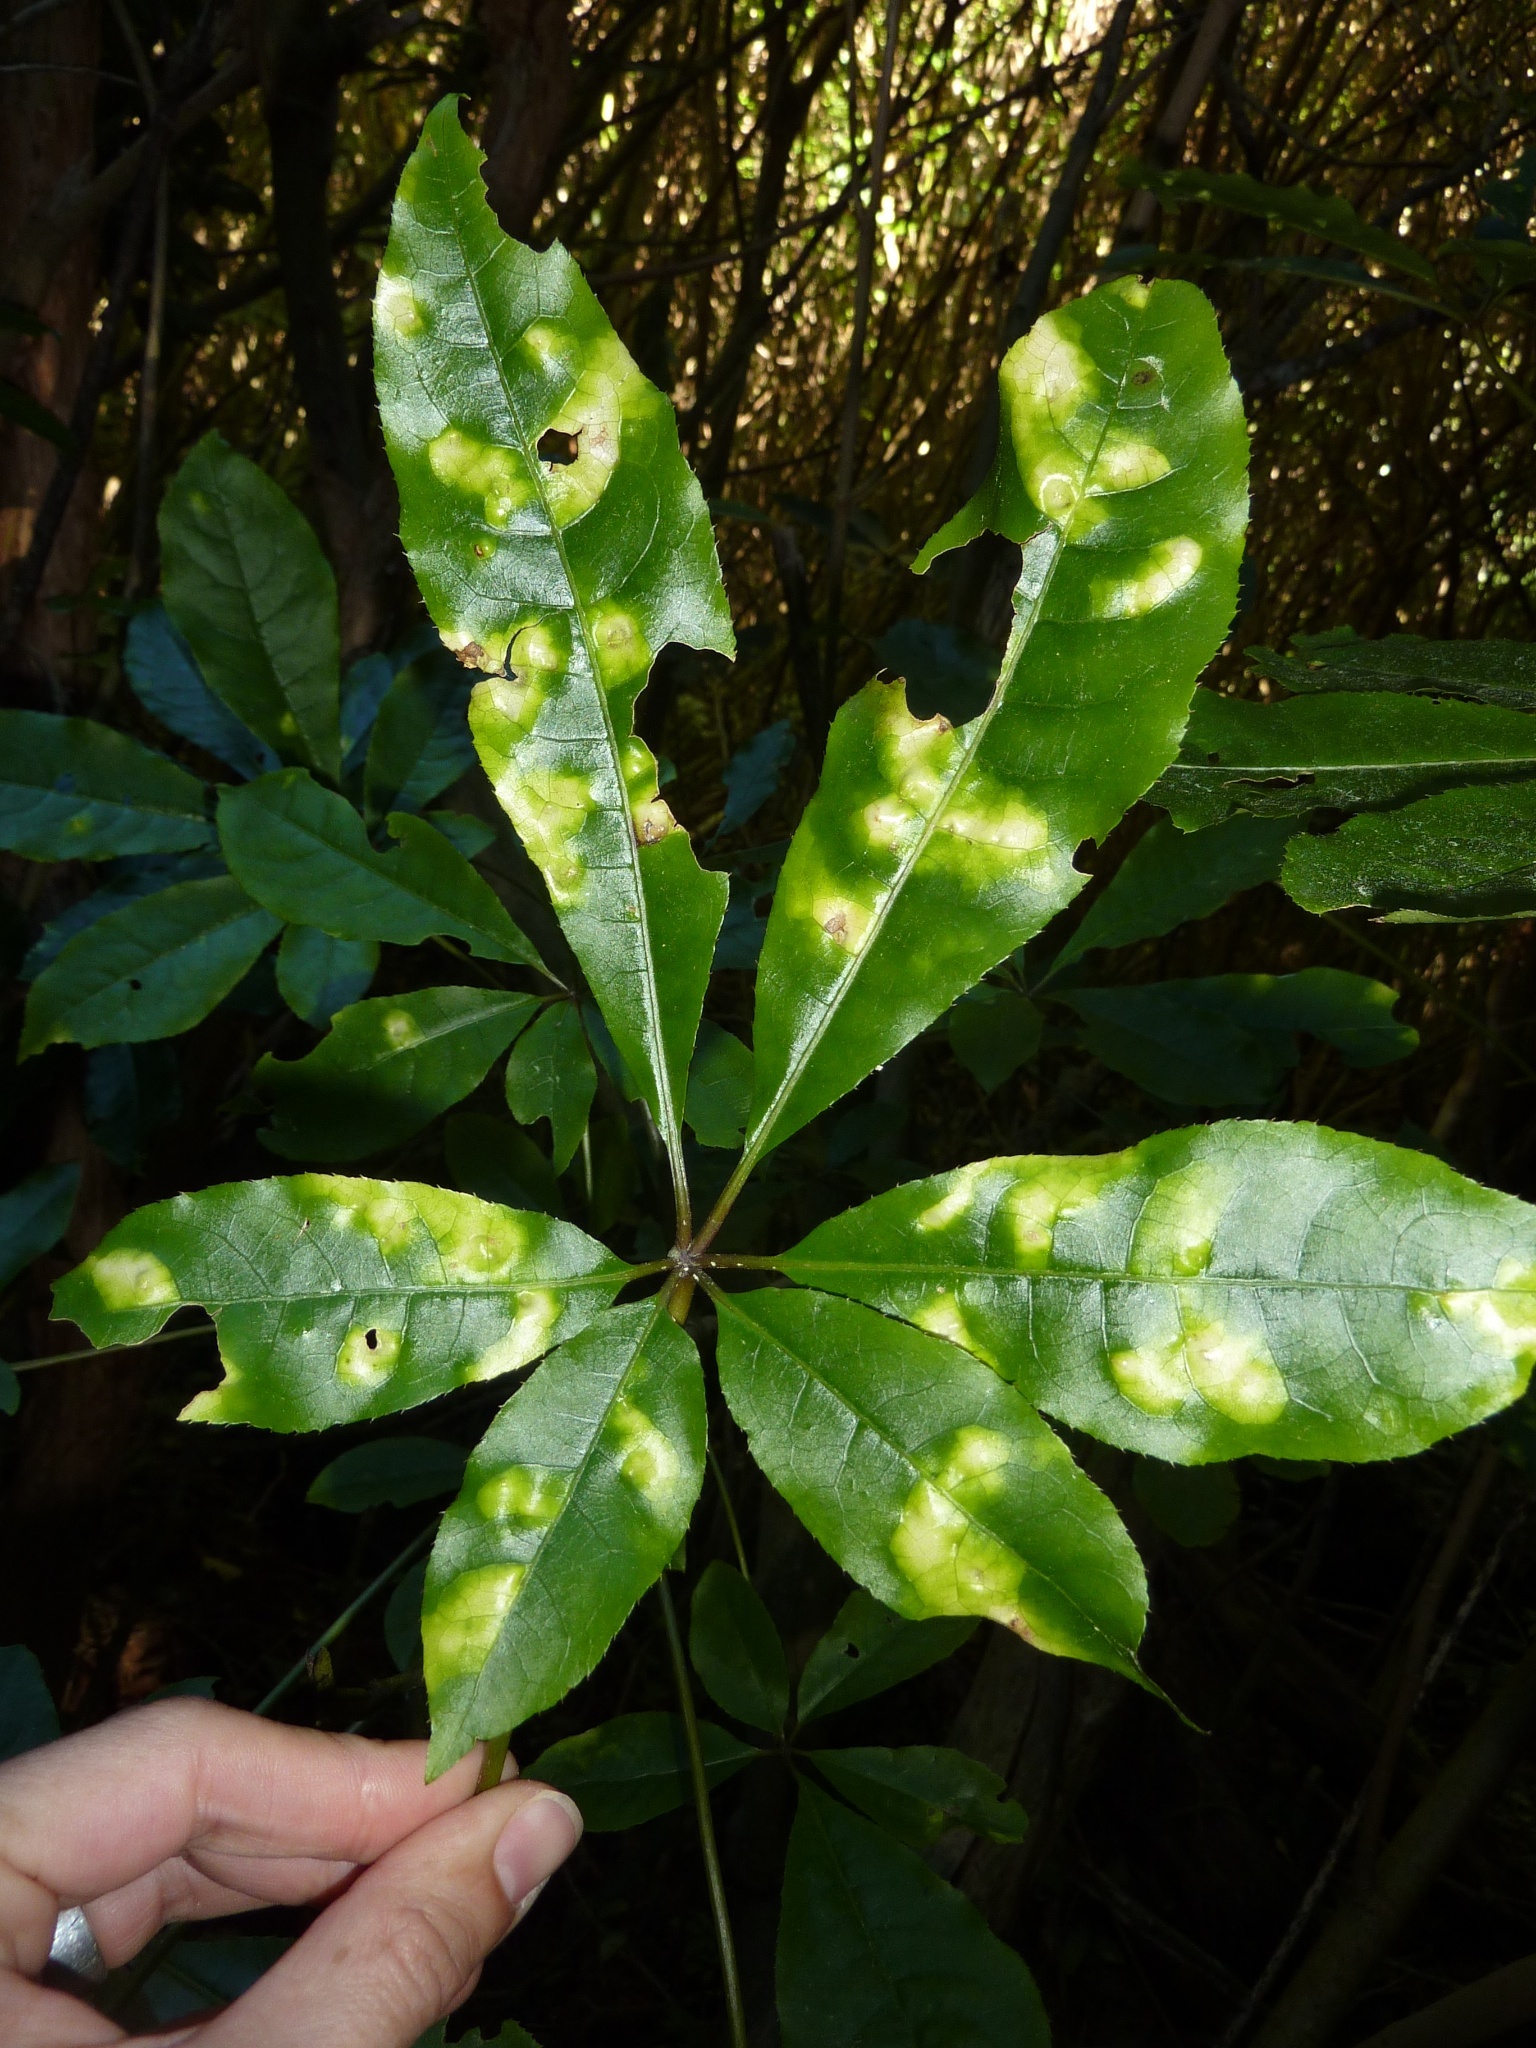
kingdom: Plantae
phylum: Tracheophyta
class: Magnoliopsida
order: Apiales
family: Araliaceae
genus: Schefflera
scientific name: Schefflera digitata
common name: Pate
